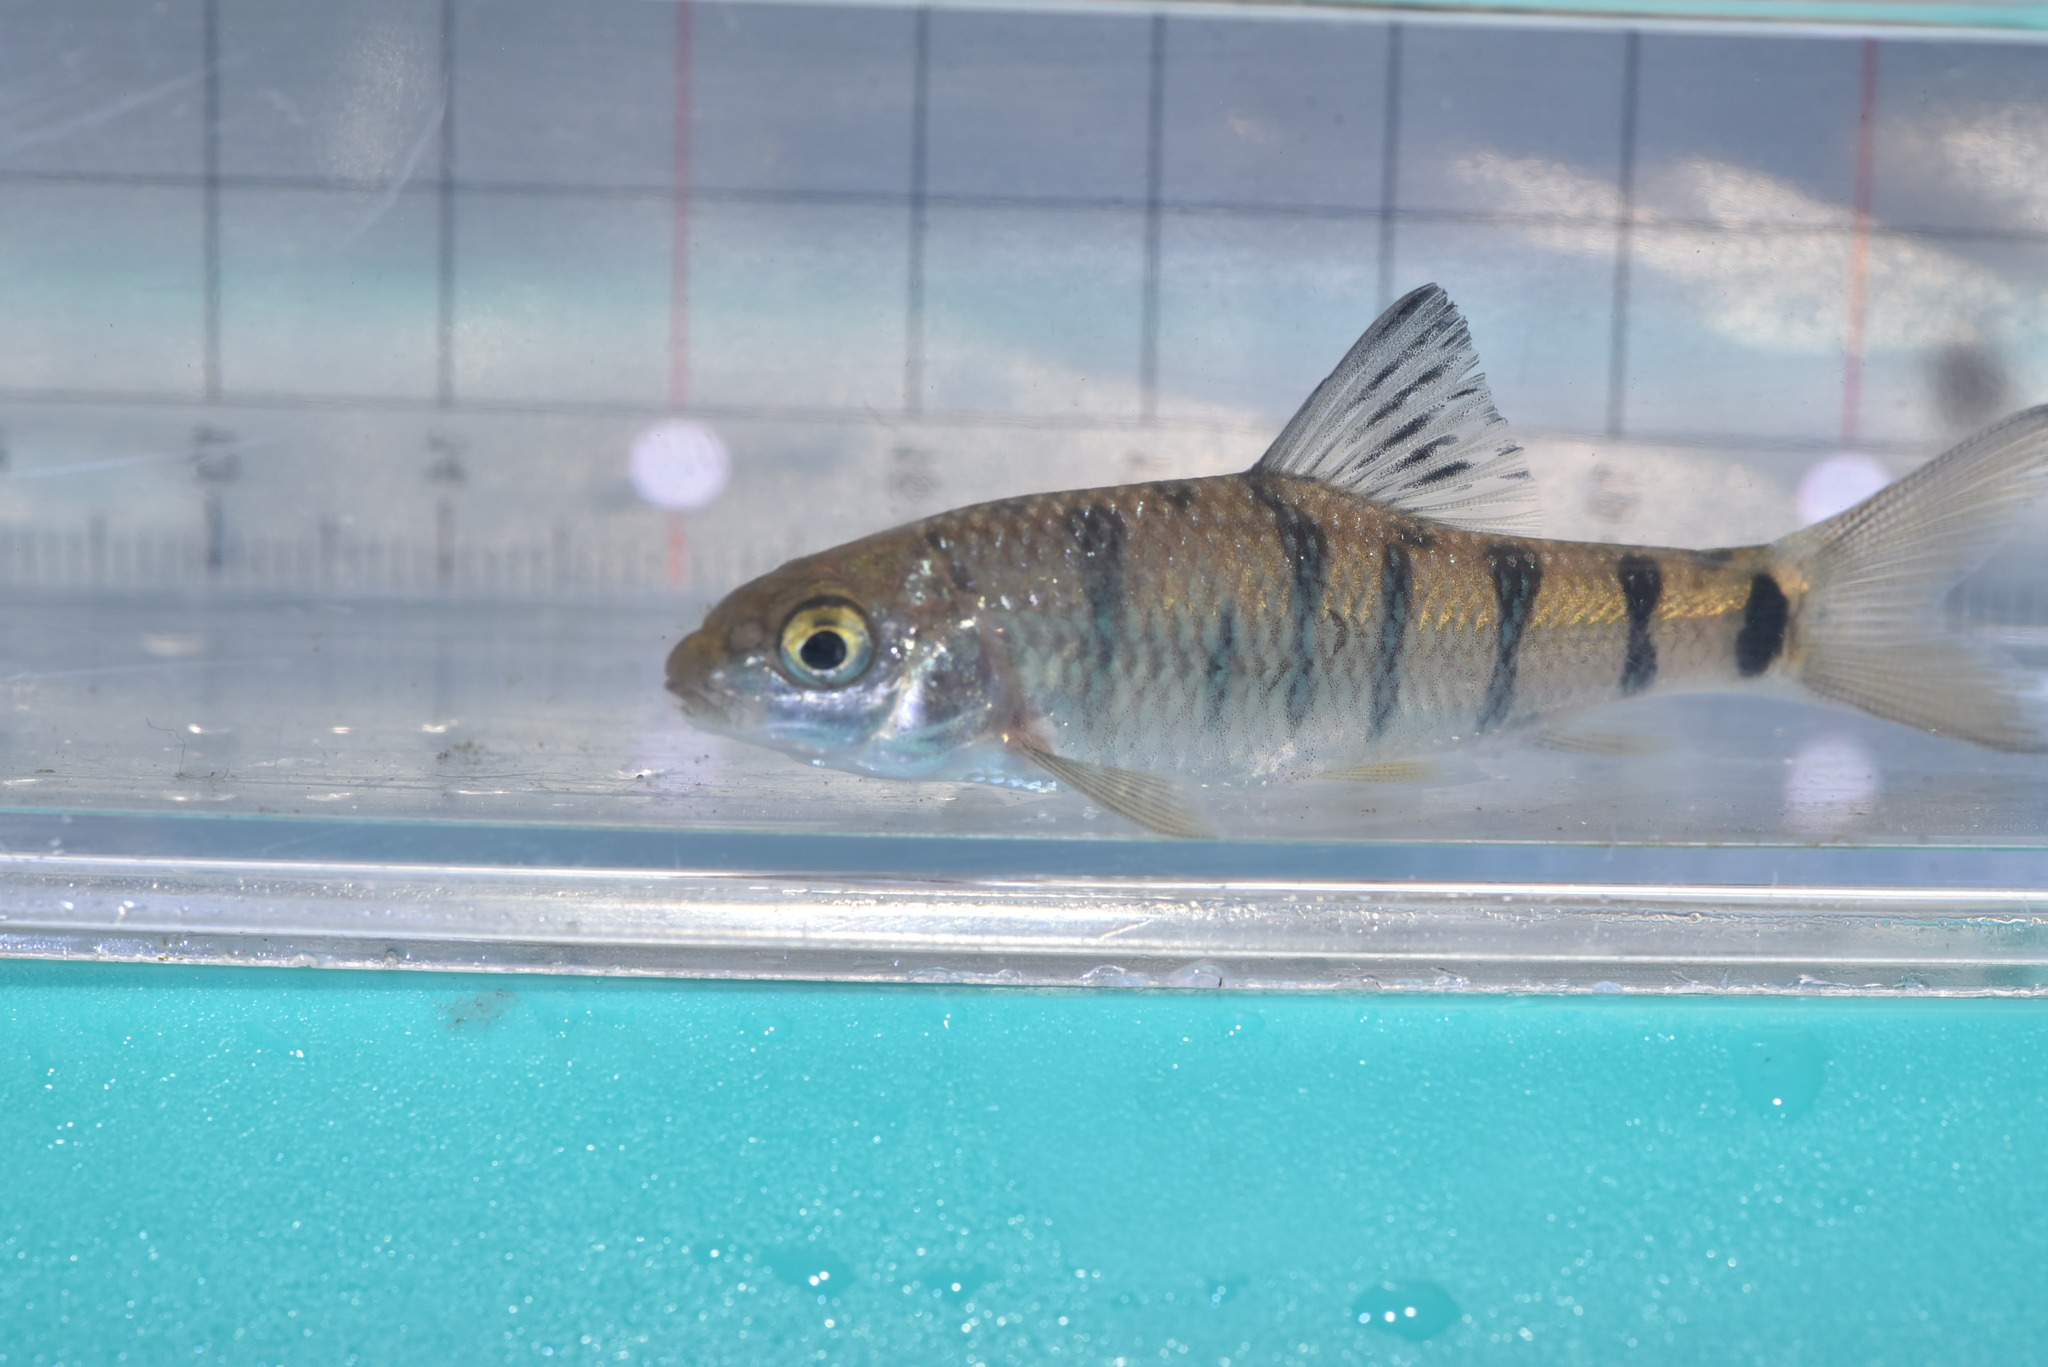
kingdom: Animalia
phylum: Chordata
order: Cypriniformes
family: Cyprinidae
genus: Acrossocheilus
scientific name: Acrossocheilus paradoxus
